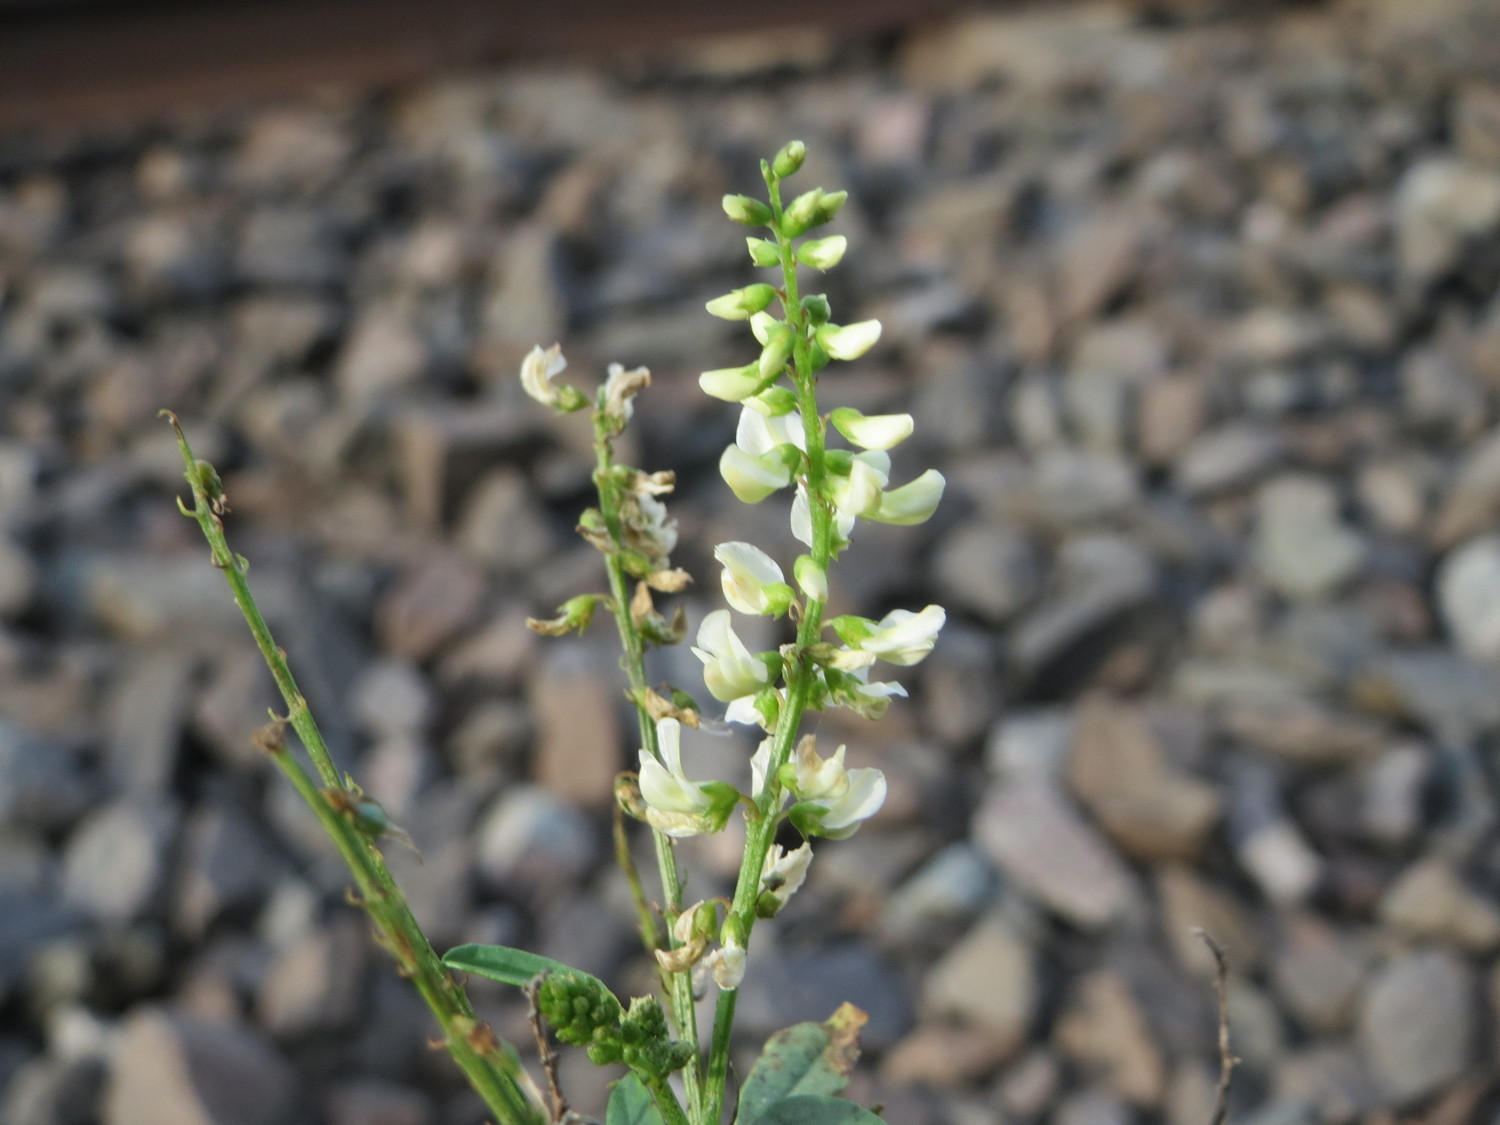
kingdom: Plantae
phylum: Tracheophyta
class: Magnoliopsida
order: Fabales
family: Fabaceae
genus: Melilotus
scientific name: Melilotus albus
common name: White melilot
